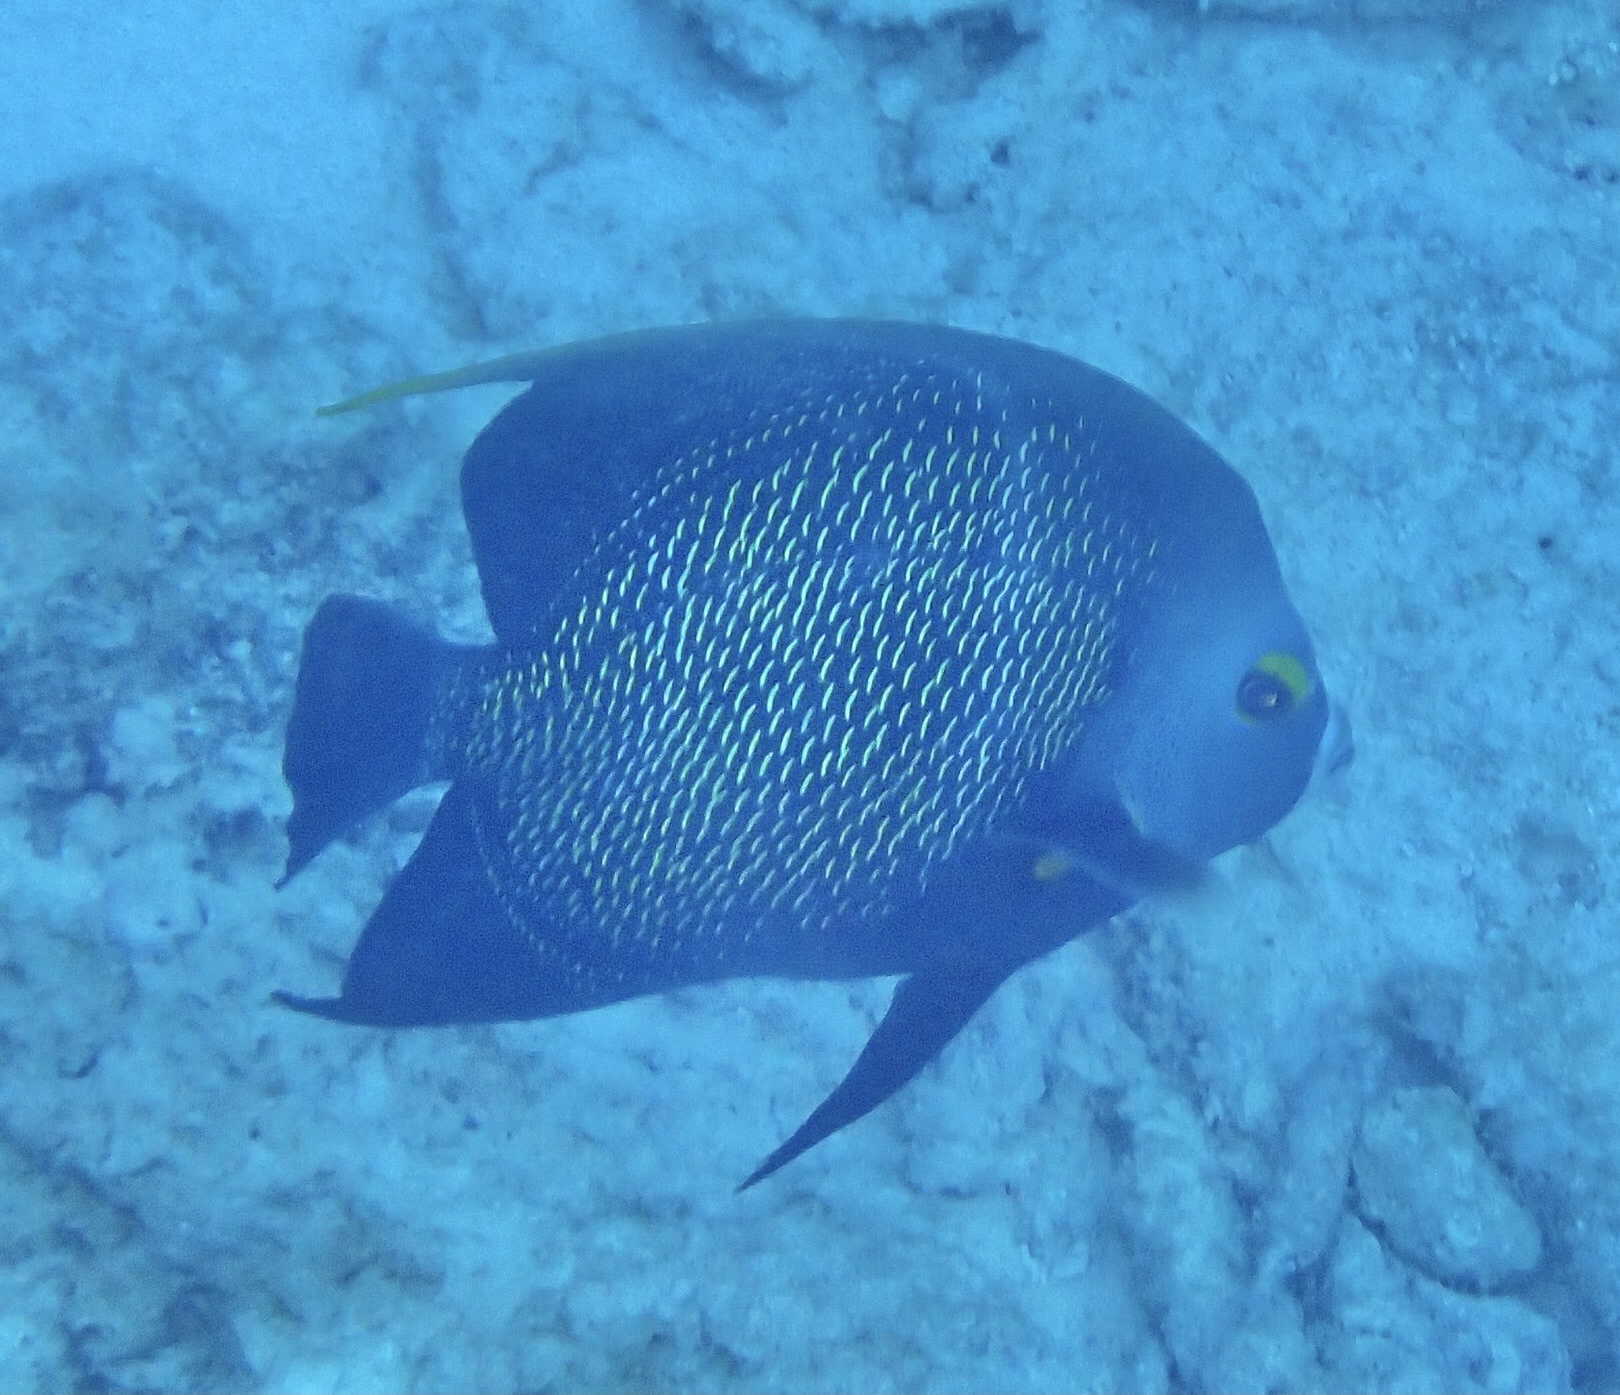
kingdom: Animalia
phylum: Chordata
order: Perciformes
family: Pomacanthidae
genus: Pomacanthus
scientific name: Pomacanthus paru
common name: French angelfish
